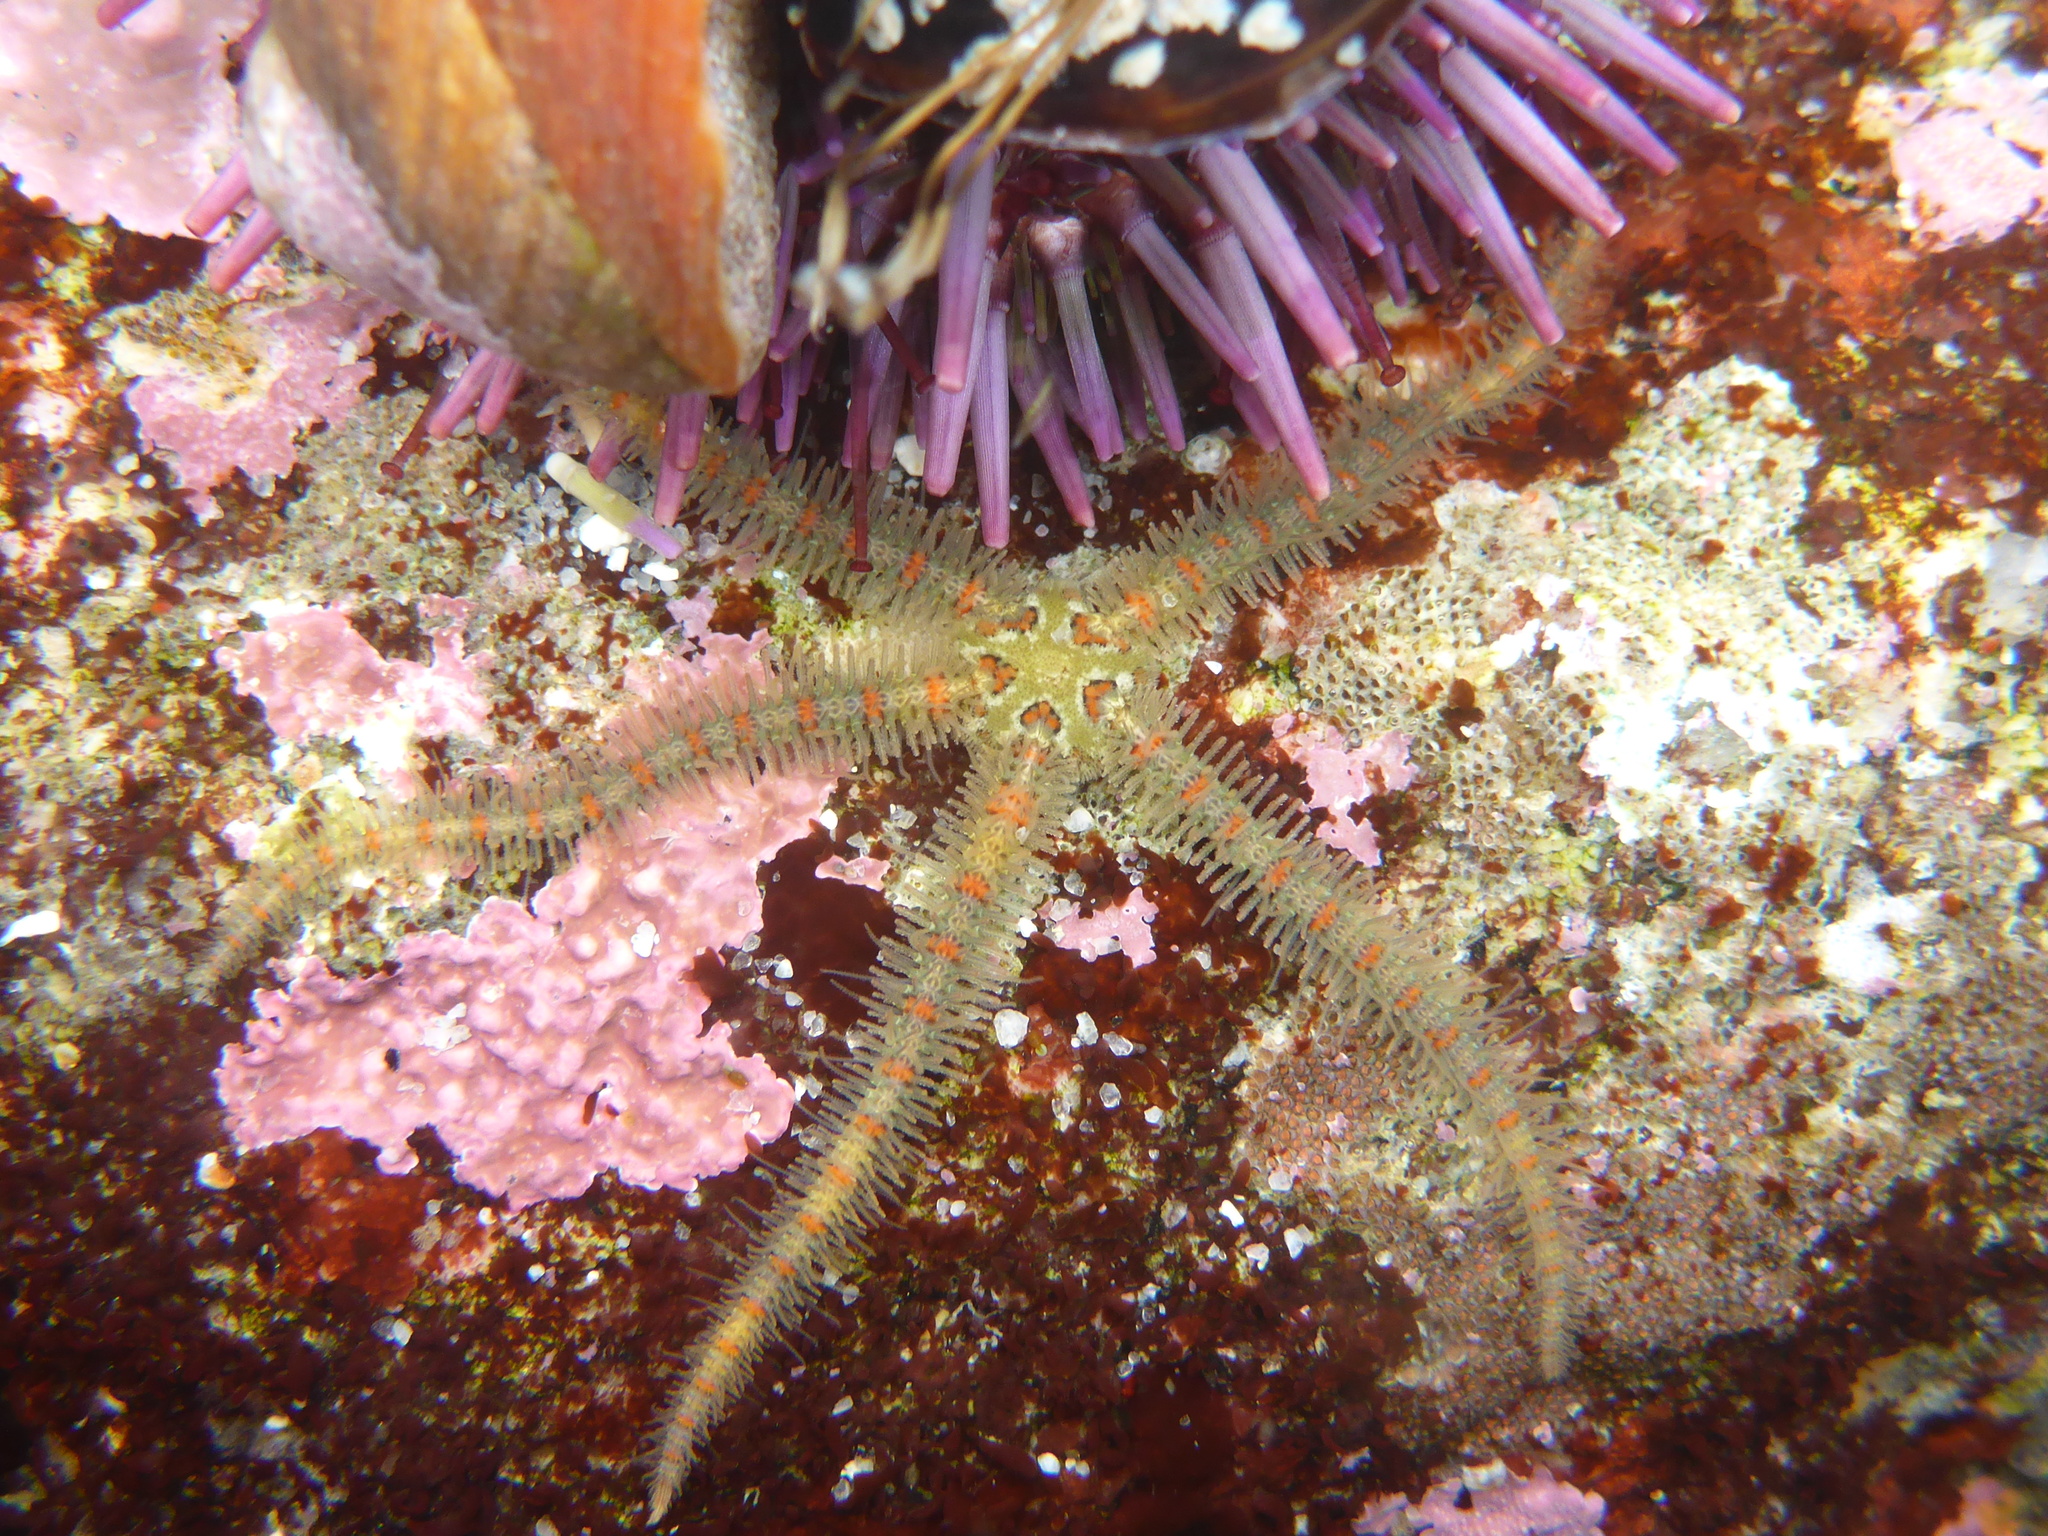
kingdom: Animalia
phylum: Echinodermata
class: Ophiuroidea
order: Amphilepidida
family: Ophiotrichidae
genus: Ophiothrix
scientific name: Ophiothrix spiculata
